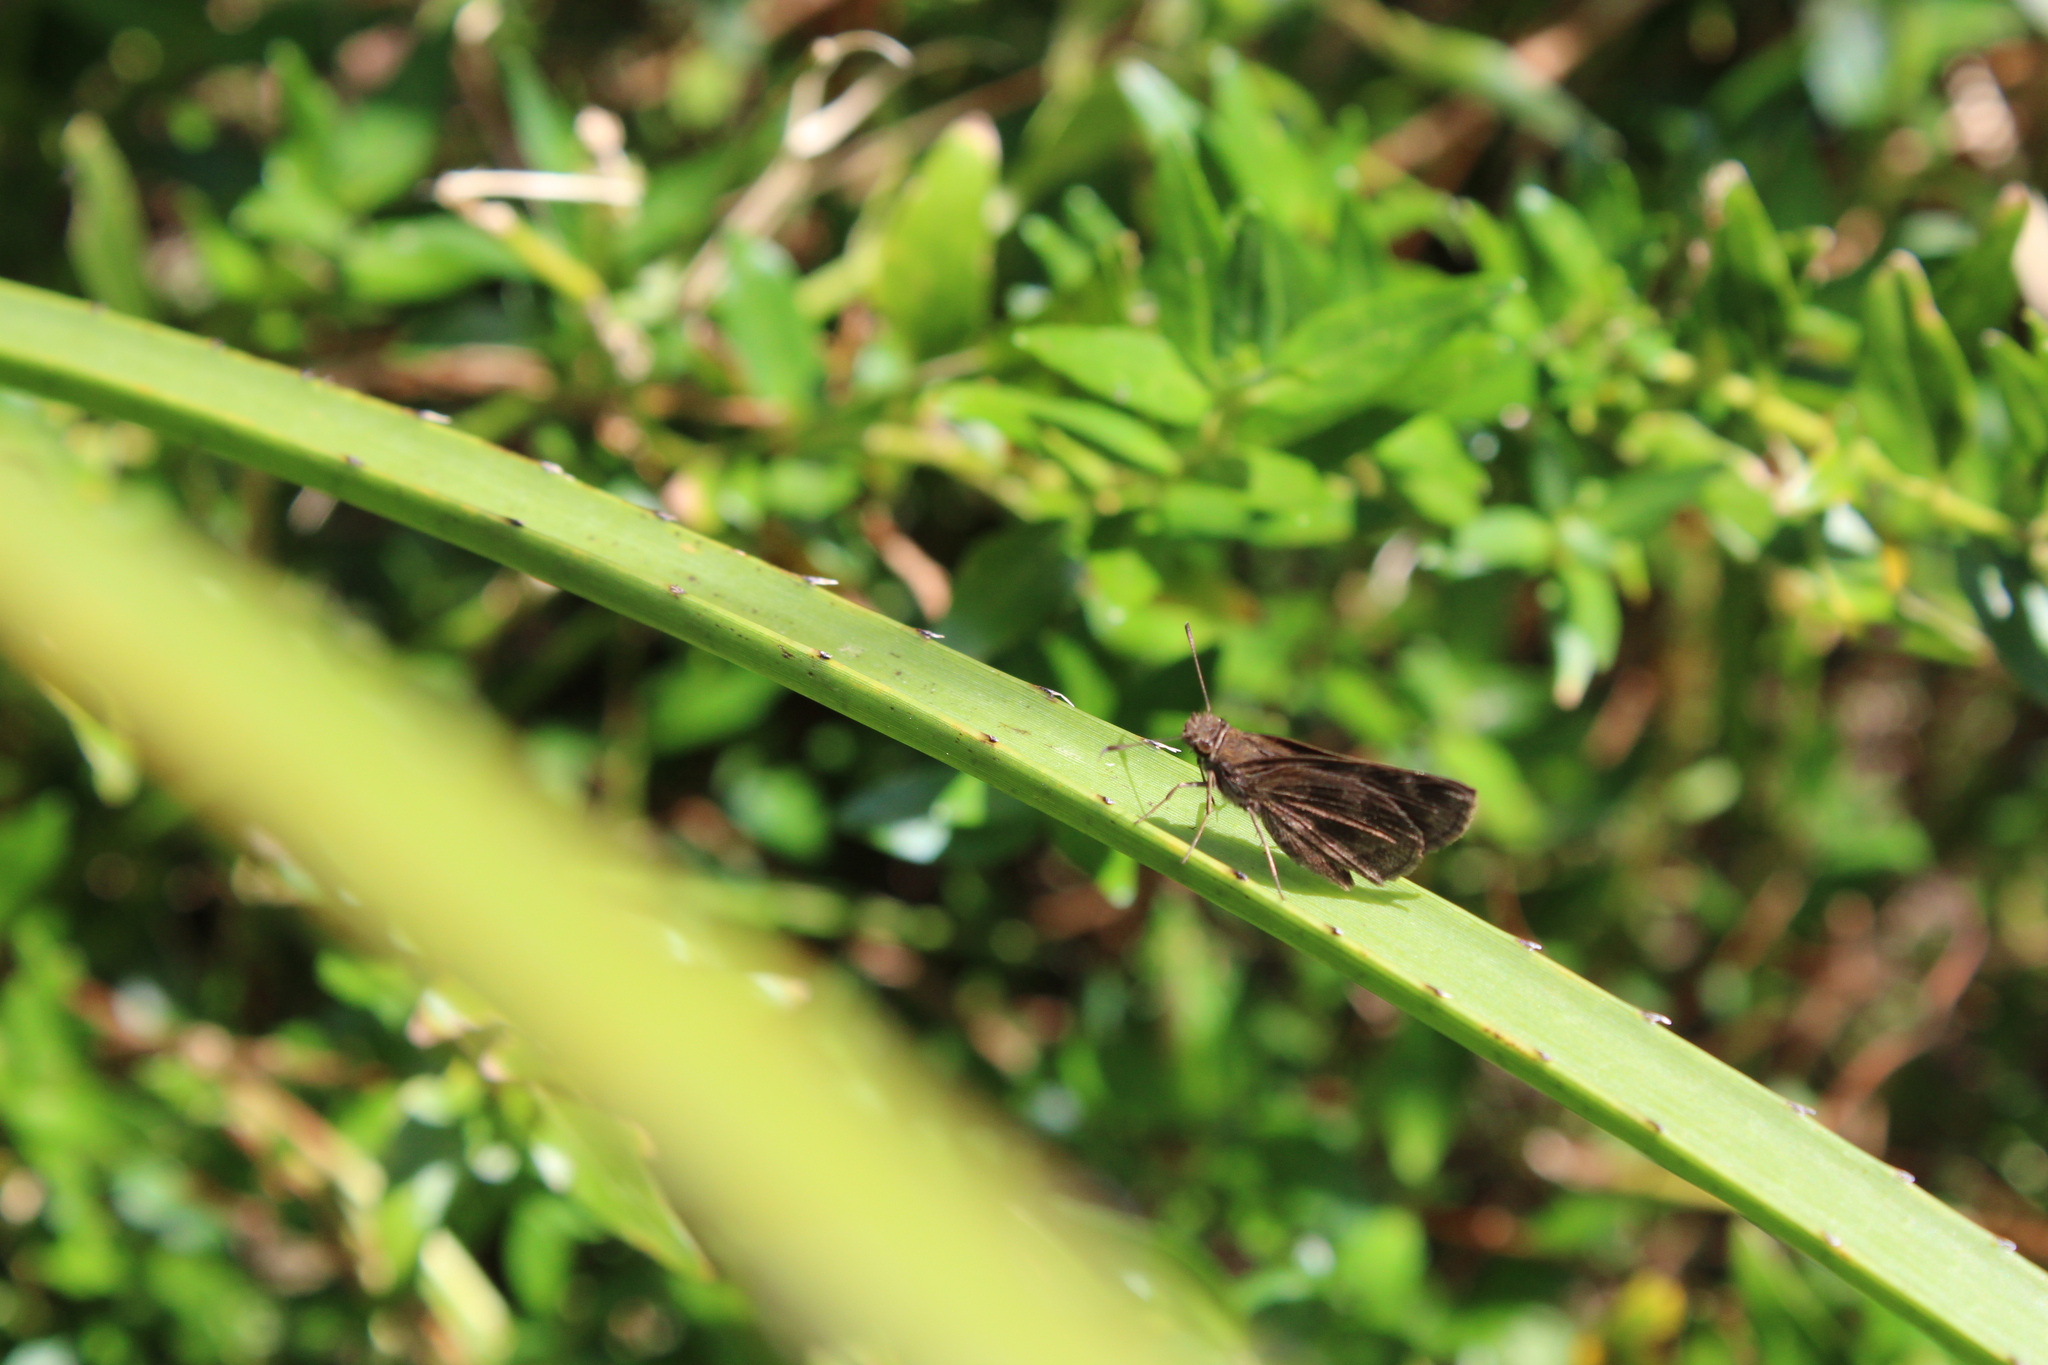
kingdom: Animalia
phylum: Arthropoda
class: Insecta
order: Lepidoptera
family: Hesperiidae
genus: Cymaenes
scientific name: Cymaenes uruba
